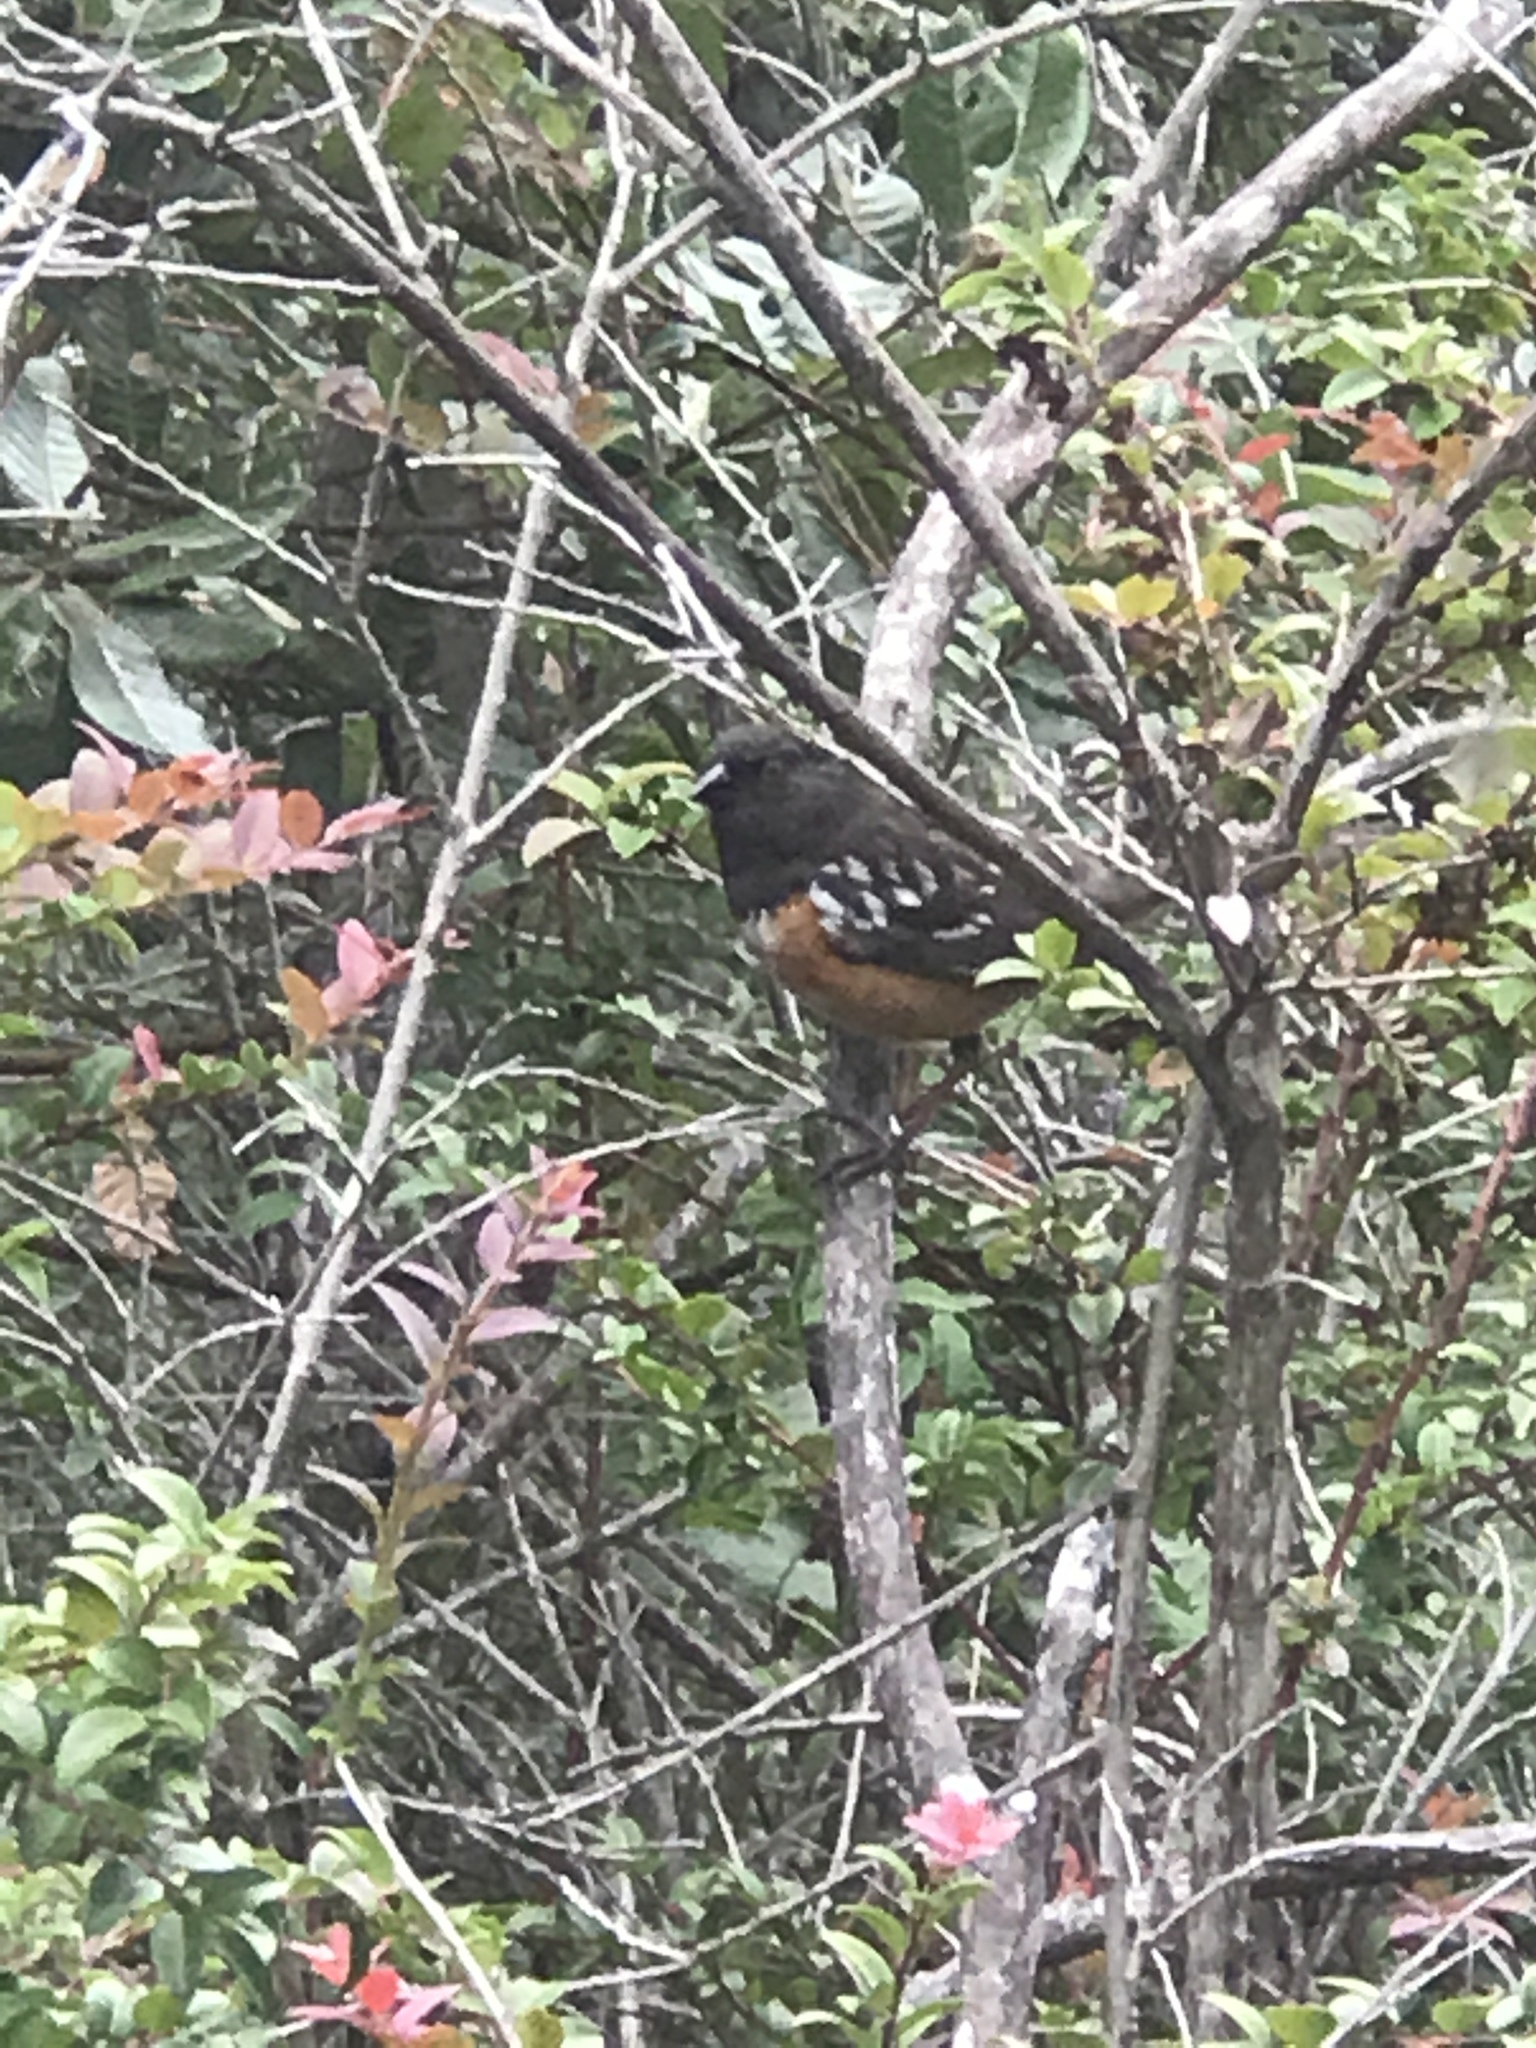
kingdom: Animalia
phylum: Chordata
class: Aves
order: Passeriformes
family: Passerellidae
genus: Pipilo
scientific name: Pipilo maculatus
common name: Spotted towhee
